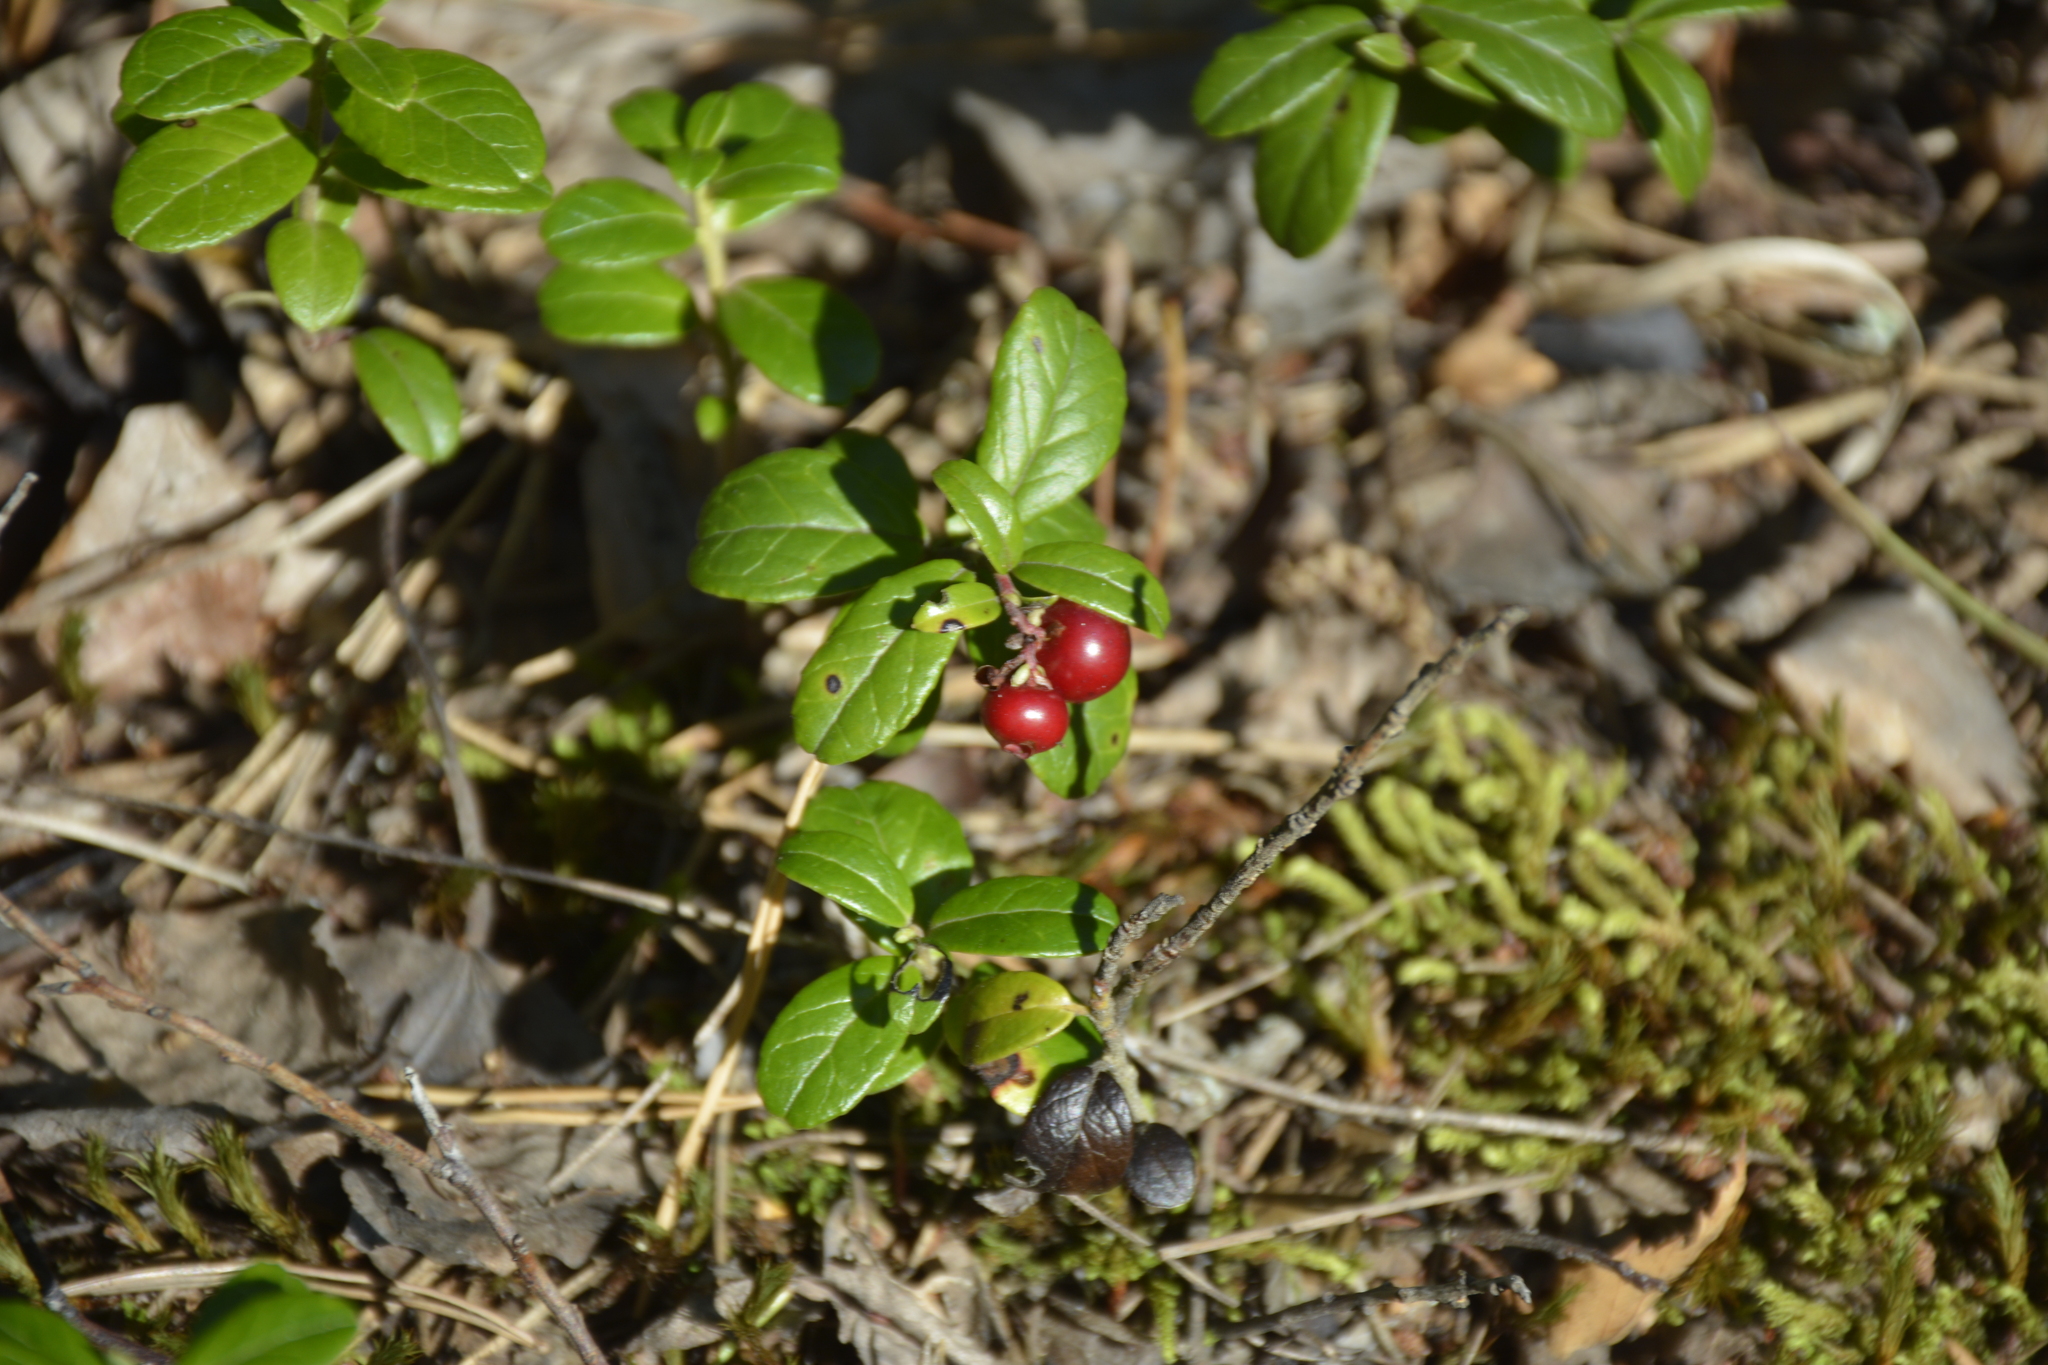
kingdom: Plantae
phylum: Tracheophyta
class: Magnoliopsida
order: Ericales
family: Ericaceae
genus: Vaccinium
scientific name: Vaccinium vitis-idaea
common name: Cowberry
